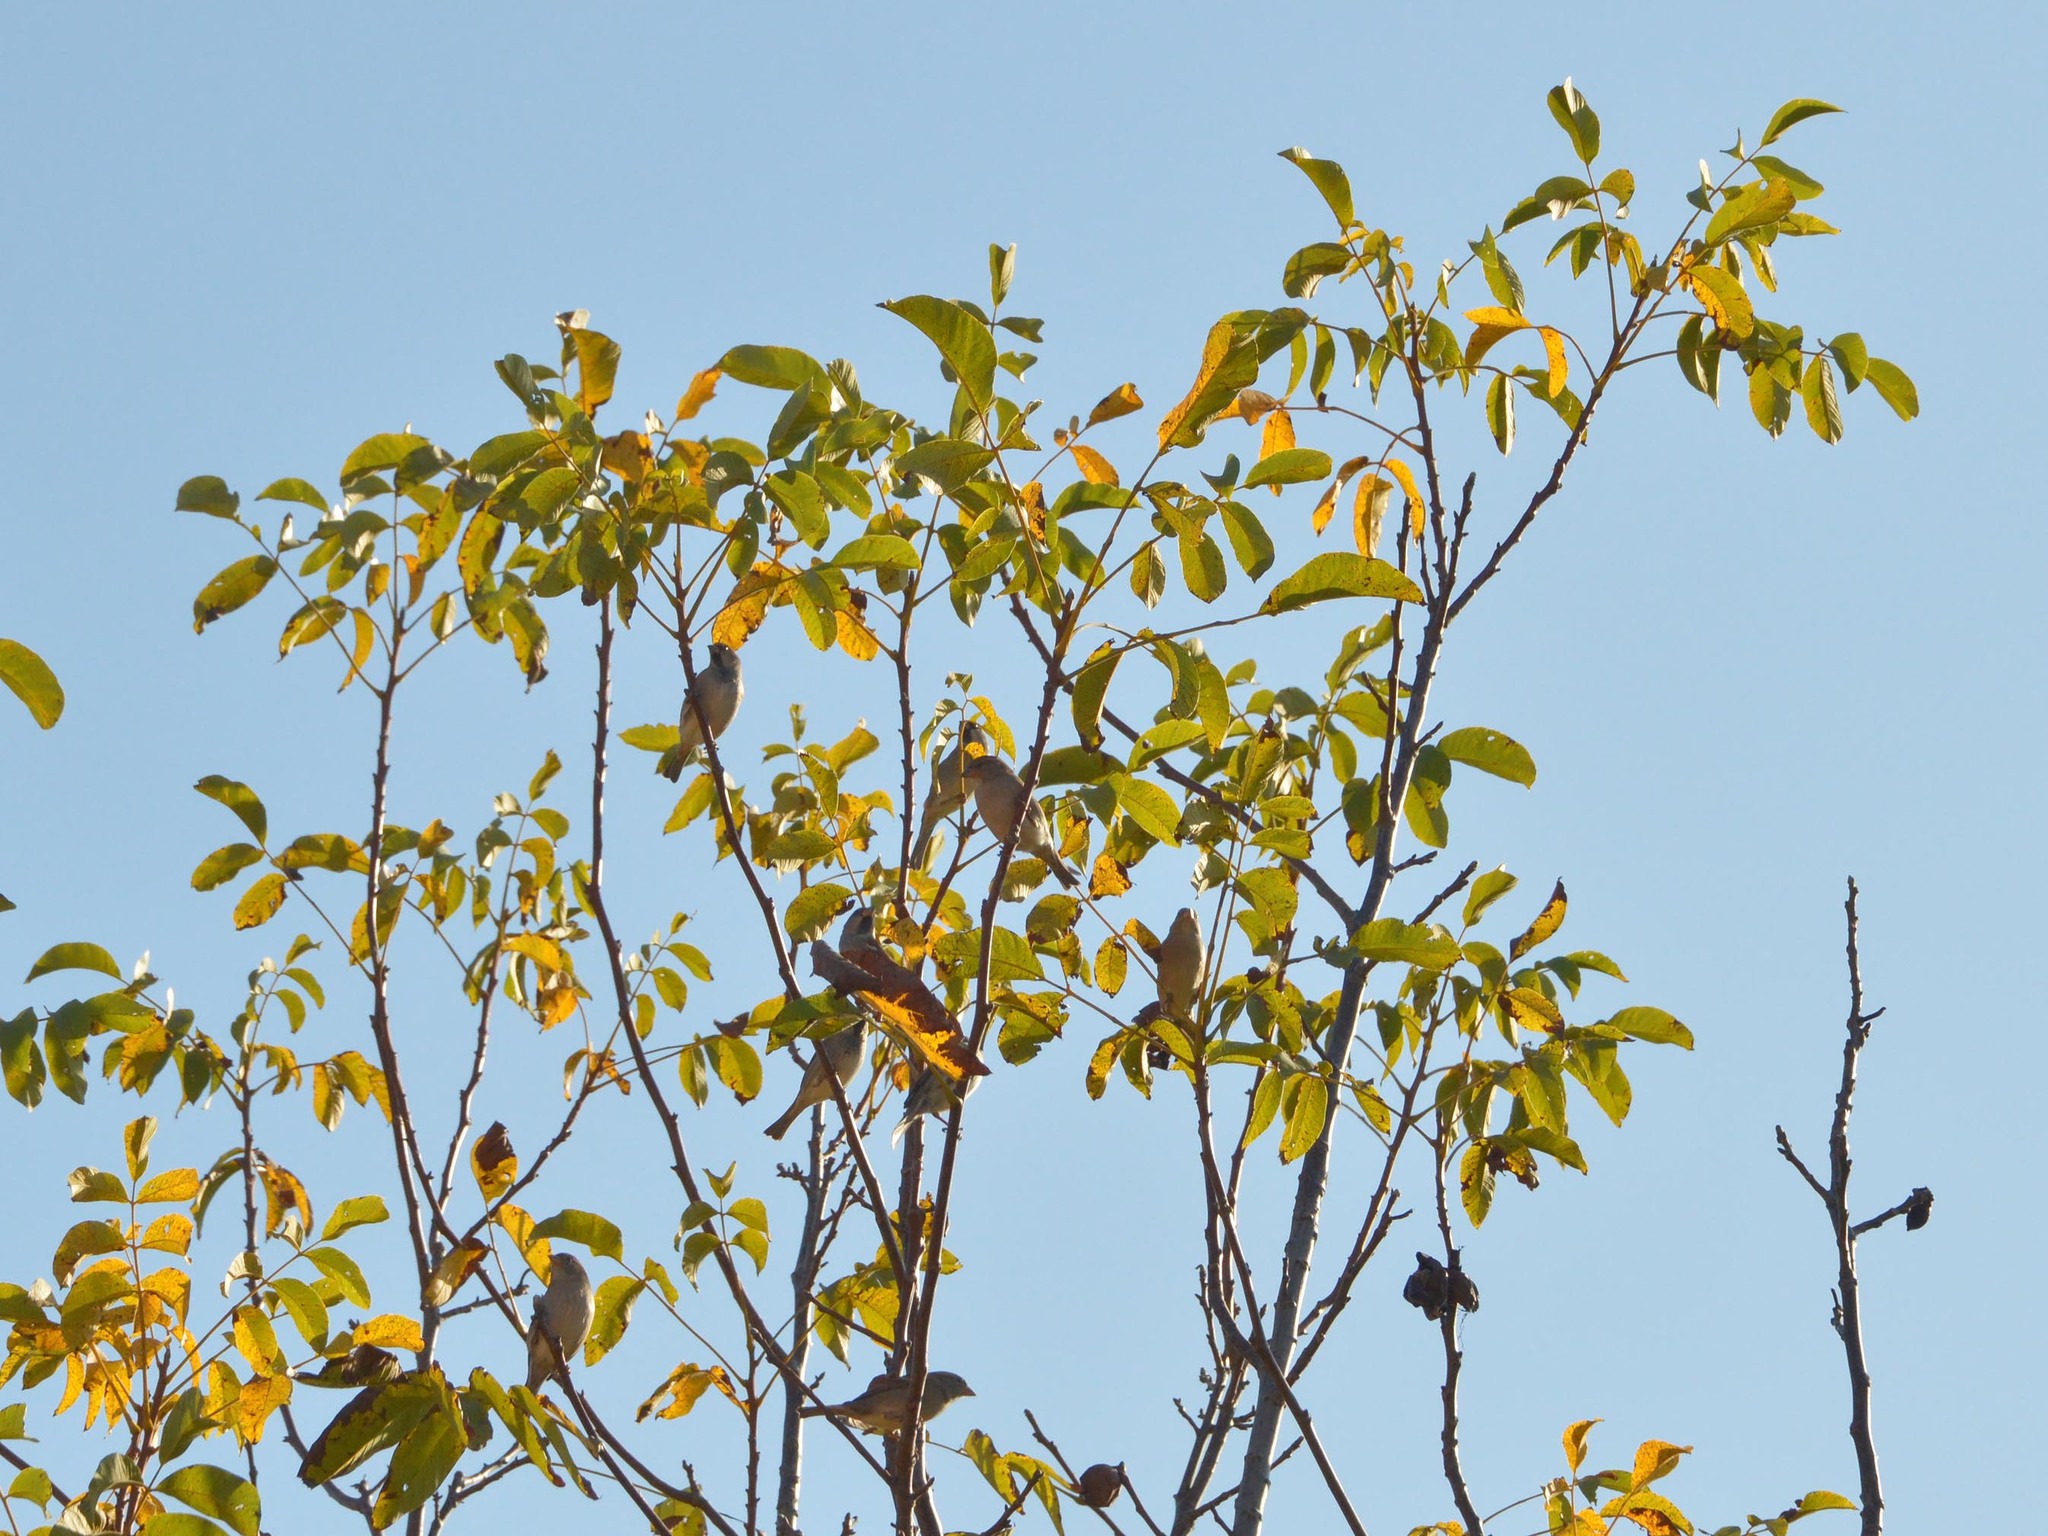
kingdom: Animalia
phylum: Chordata
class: Aves
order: Passeriformes
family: Passeridae
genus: Passer
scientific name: Passer domesticus
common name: House sparrow
